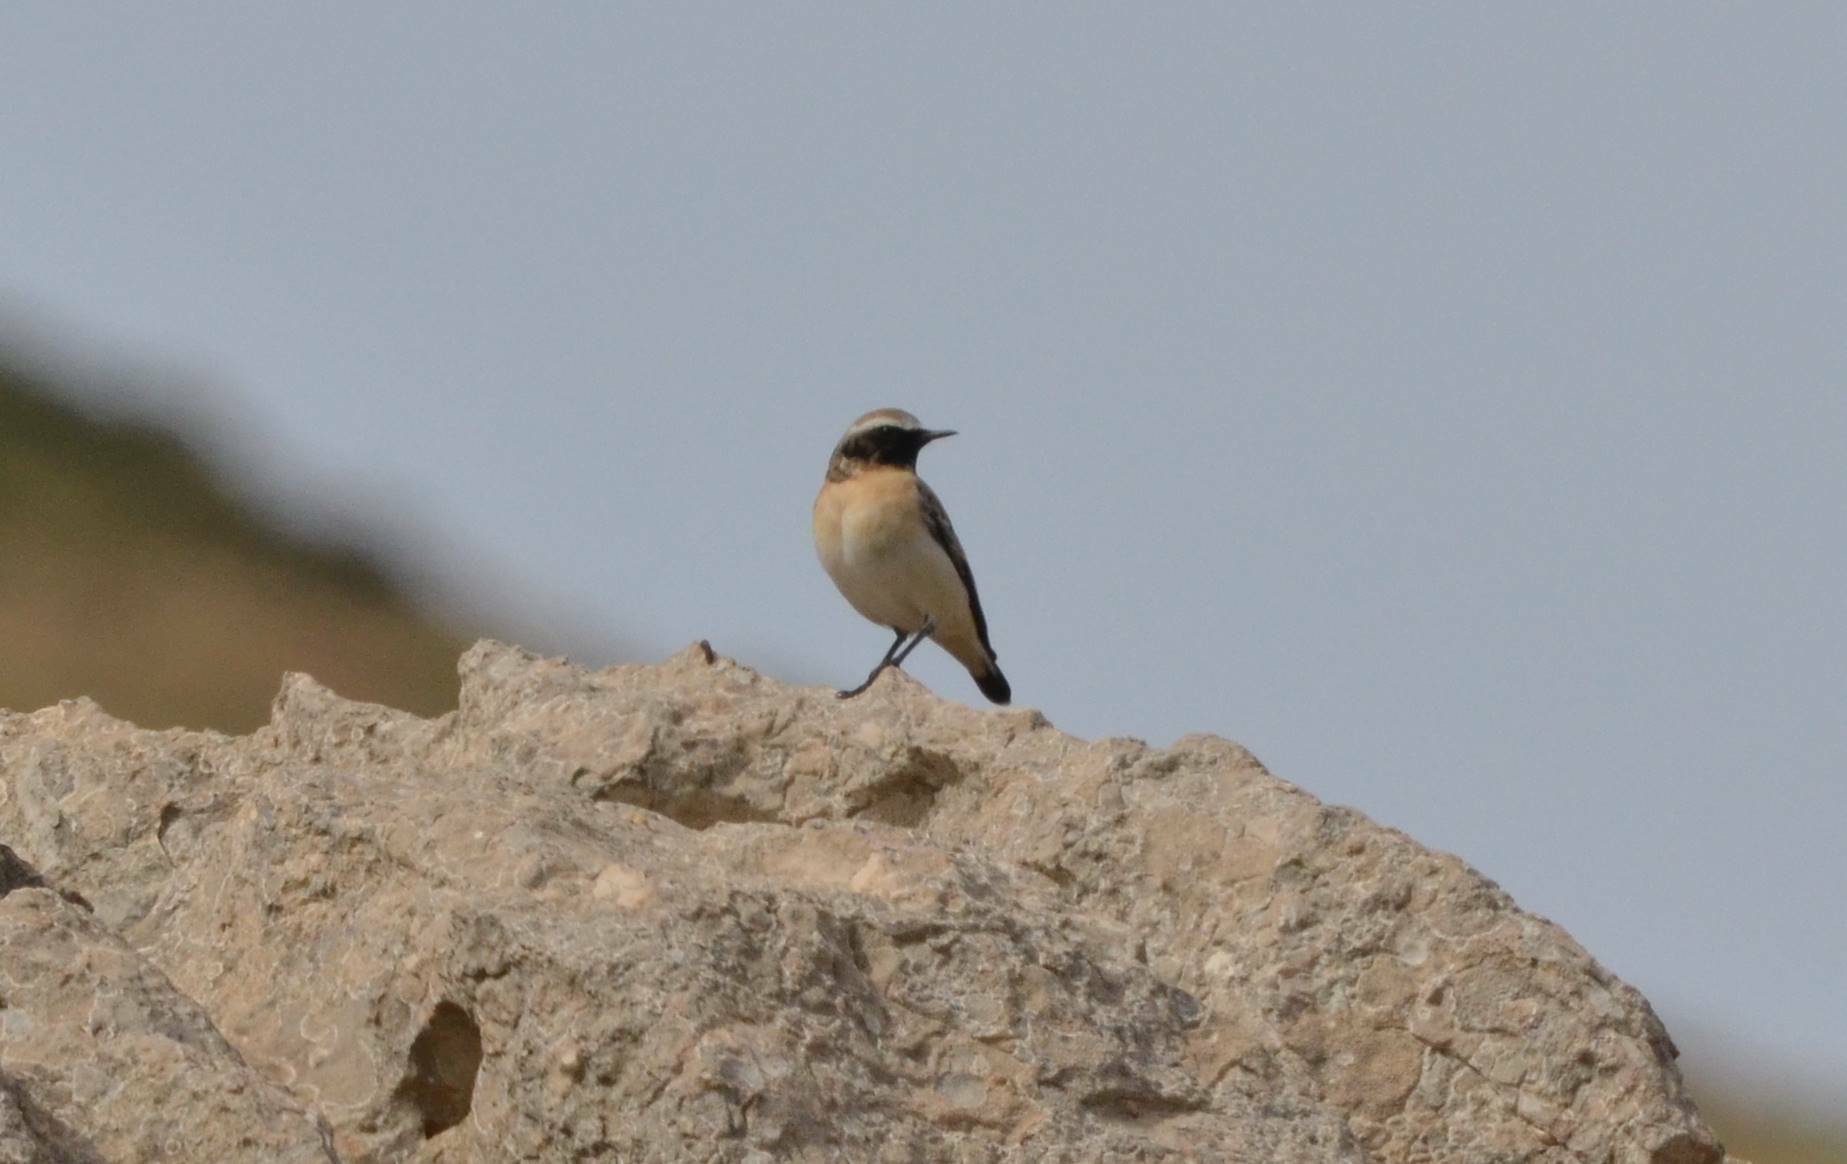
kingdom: Animalia
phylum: Chordata
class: Aves
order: Passeriformes
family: Muscicapidae
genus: Oenanthe
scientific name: Oenanthe oenanthe
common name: Northern wheatear
